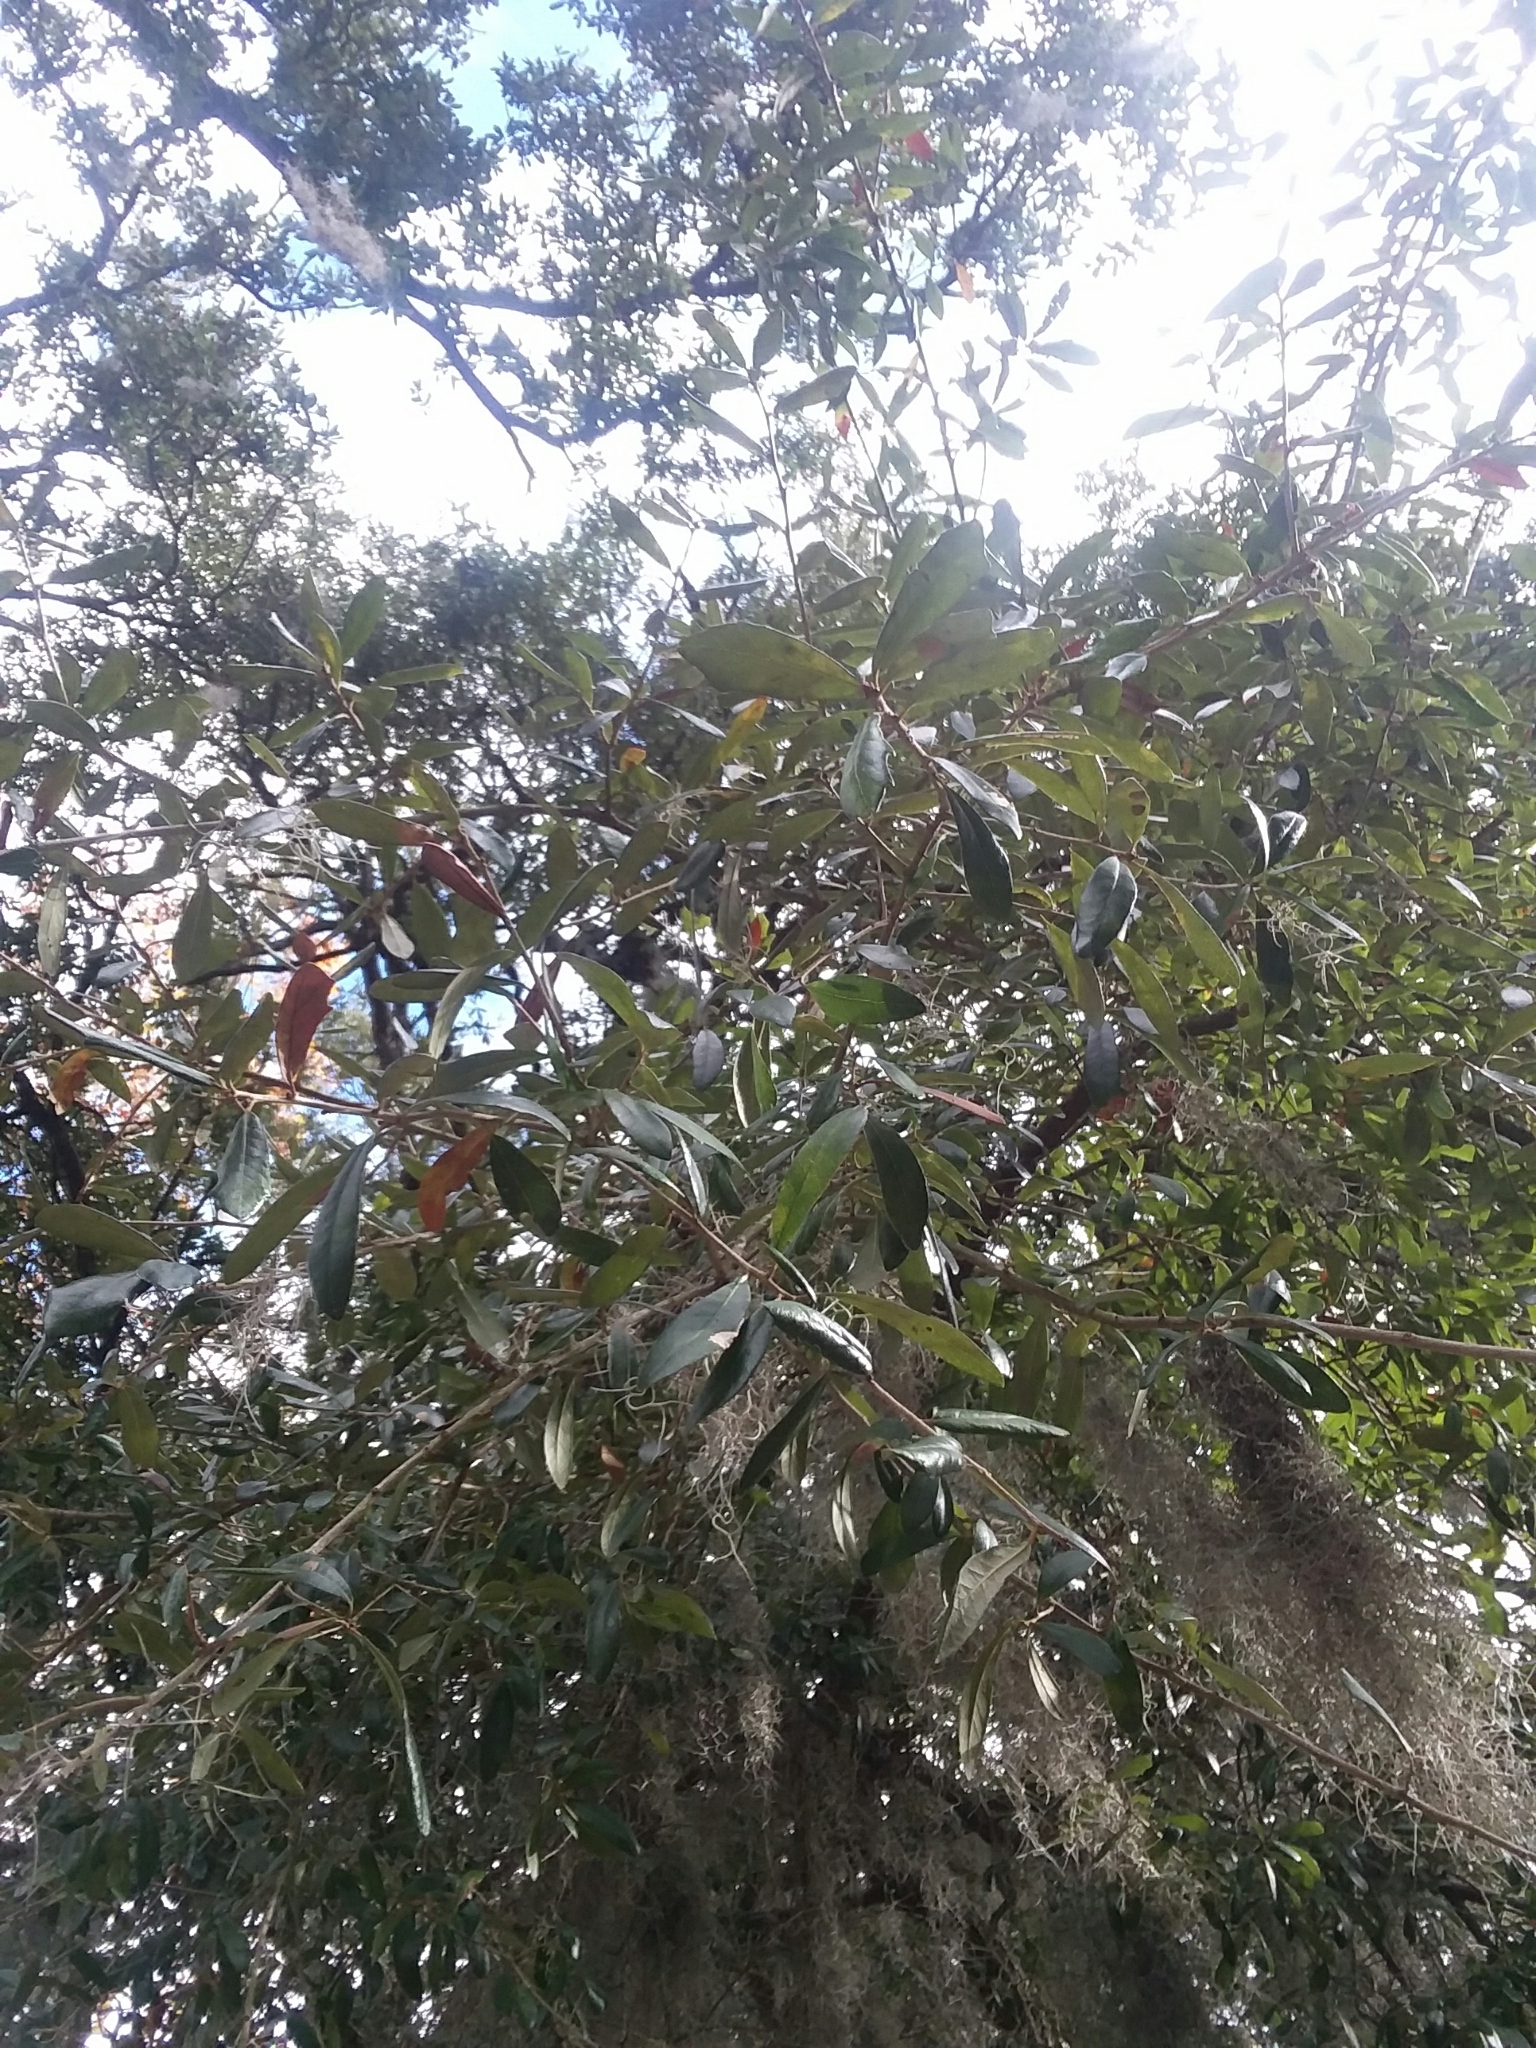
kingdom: Plantae
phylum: Tracheophyta
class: Magnoliopsida
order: Fagales
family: Fagaceae
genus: Quercus
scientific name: Quercus virginiana
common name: Southern live oak
